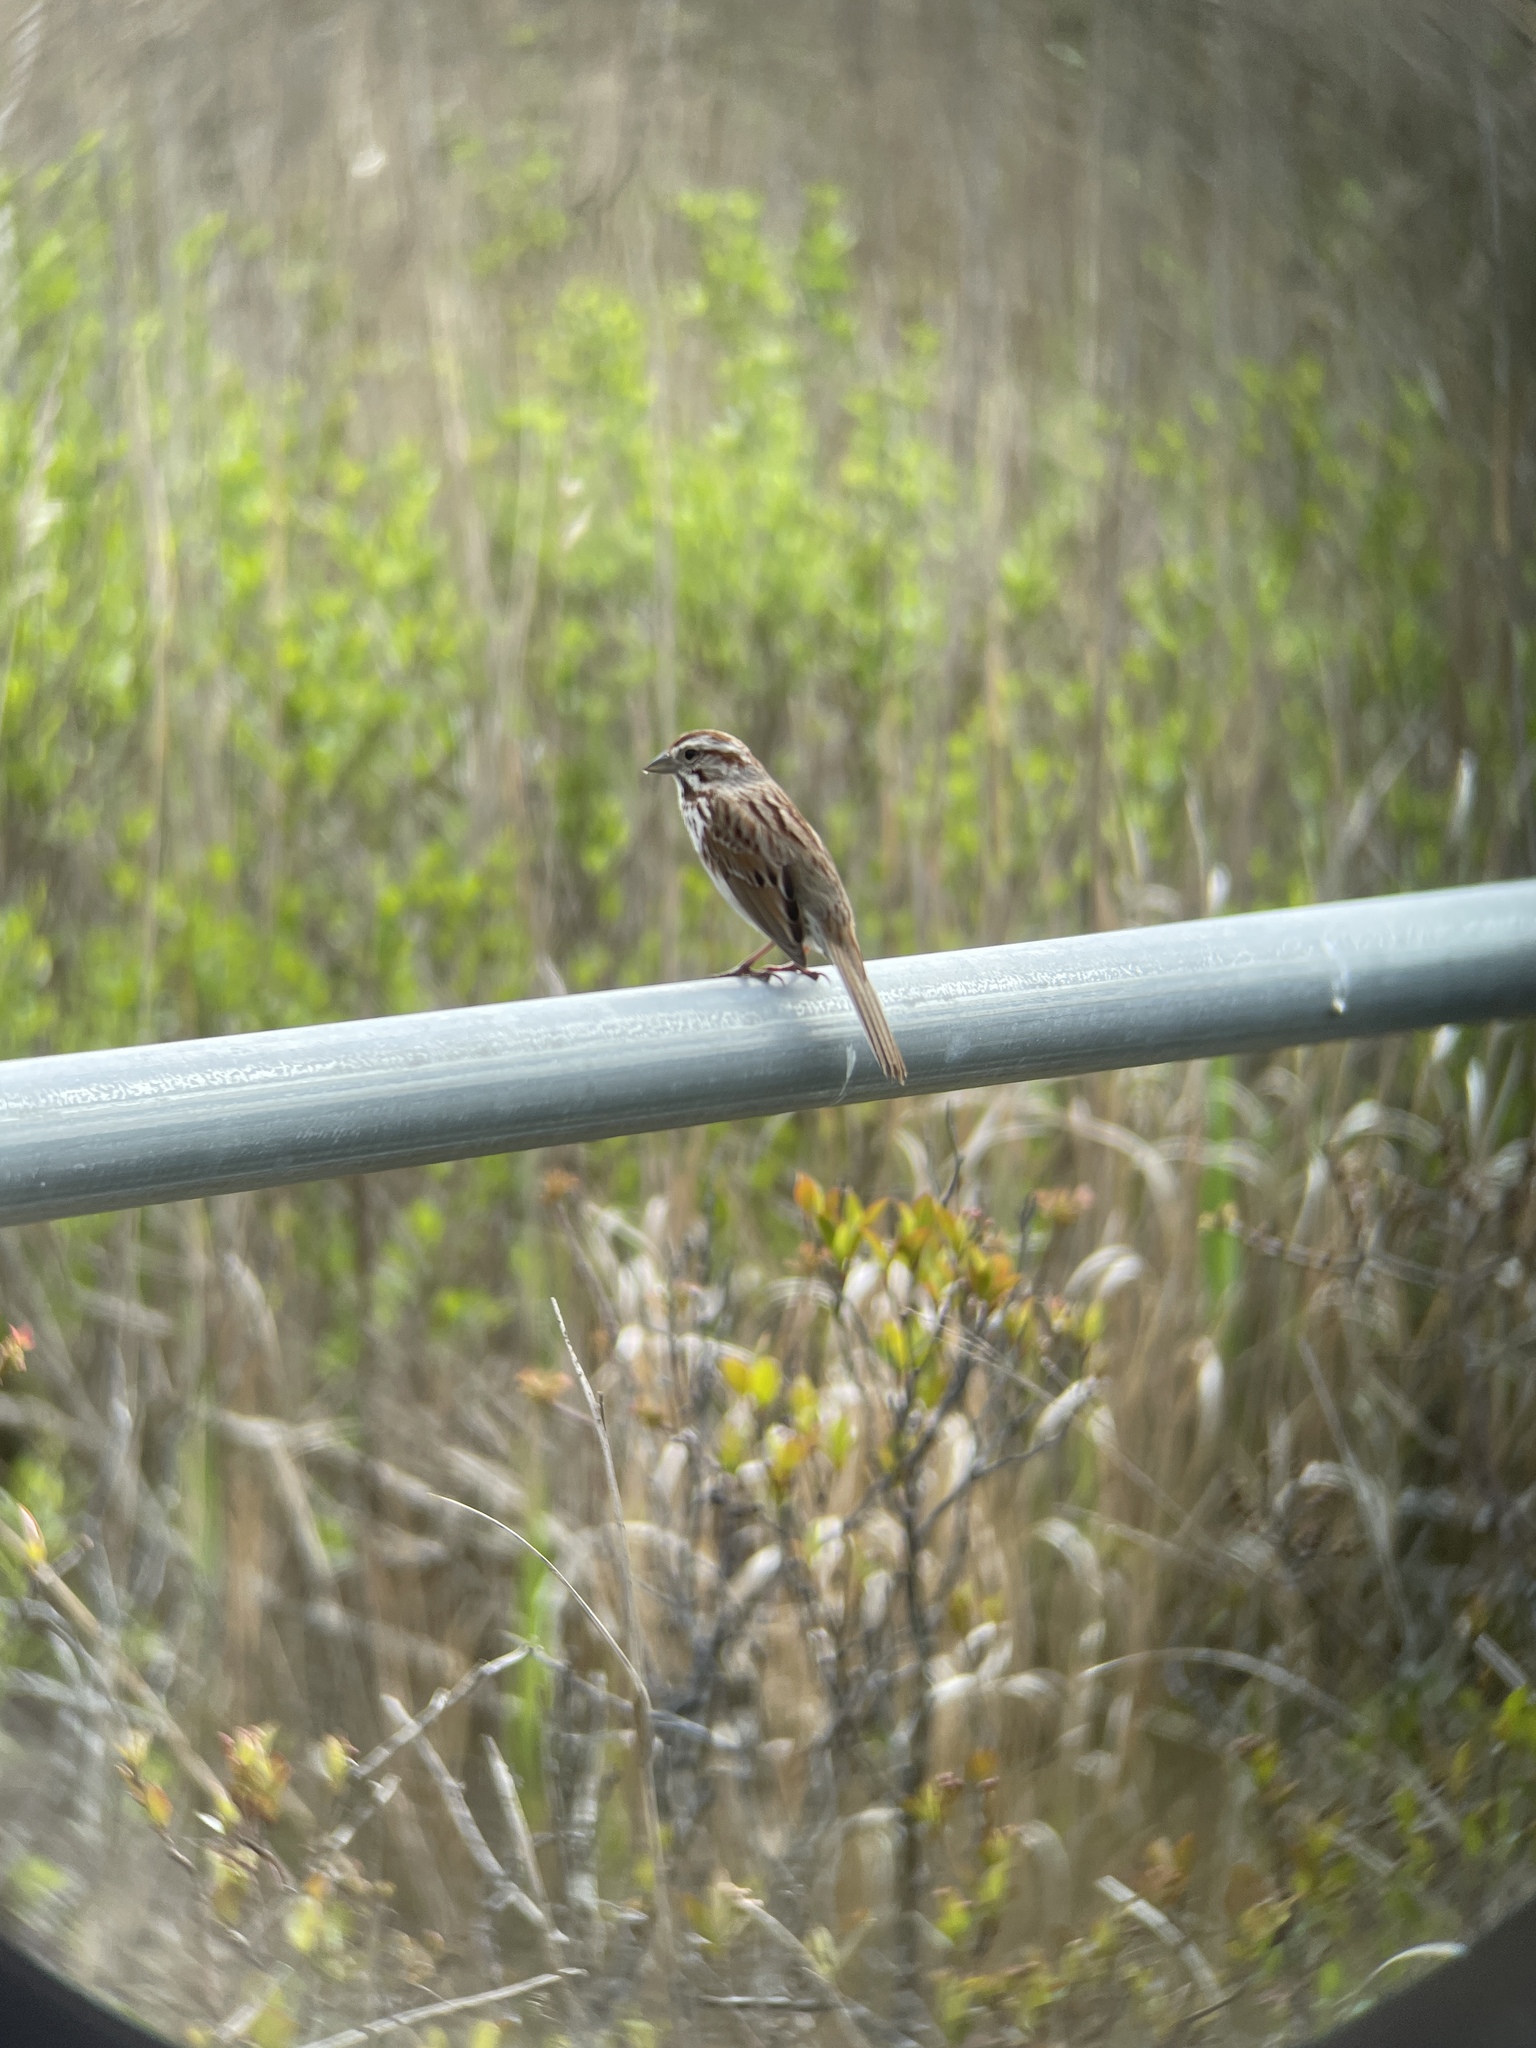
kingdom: Animalia
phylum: Chordata
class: Aves
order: Passeriformes
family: Passerellidae
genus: Melospiza
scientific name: Melospiza melodia
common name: Song sparrow
